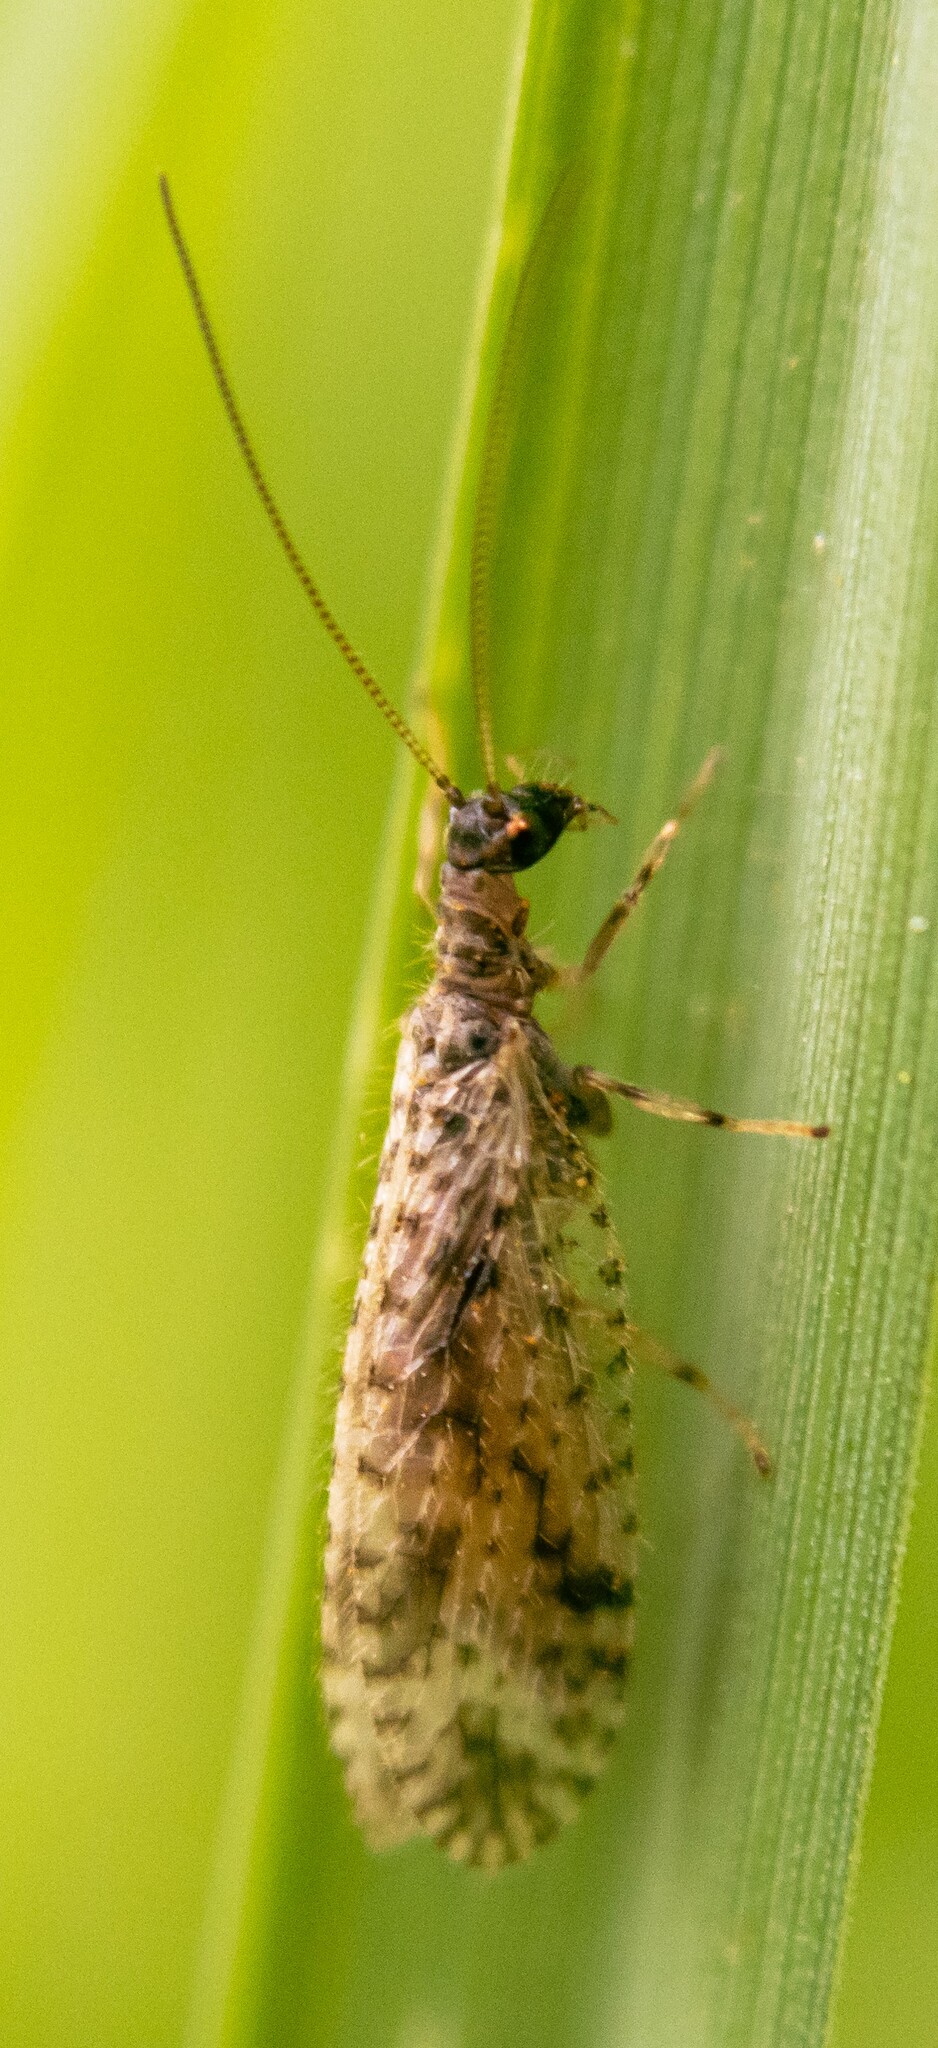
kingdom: Animalia
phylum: Arthropoda
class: Insecta
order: Neuroptera
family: Hemerobiidae
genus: Micromus
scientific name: Micromus variegatus
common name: Brown lacewing
